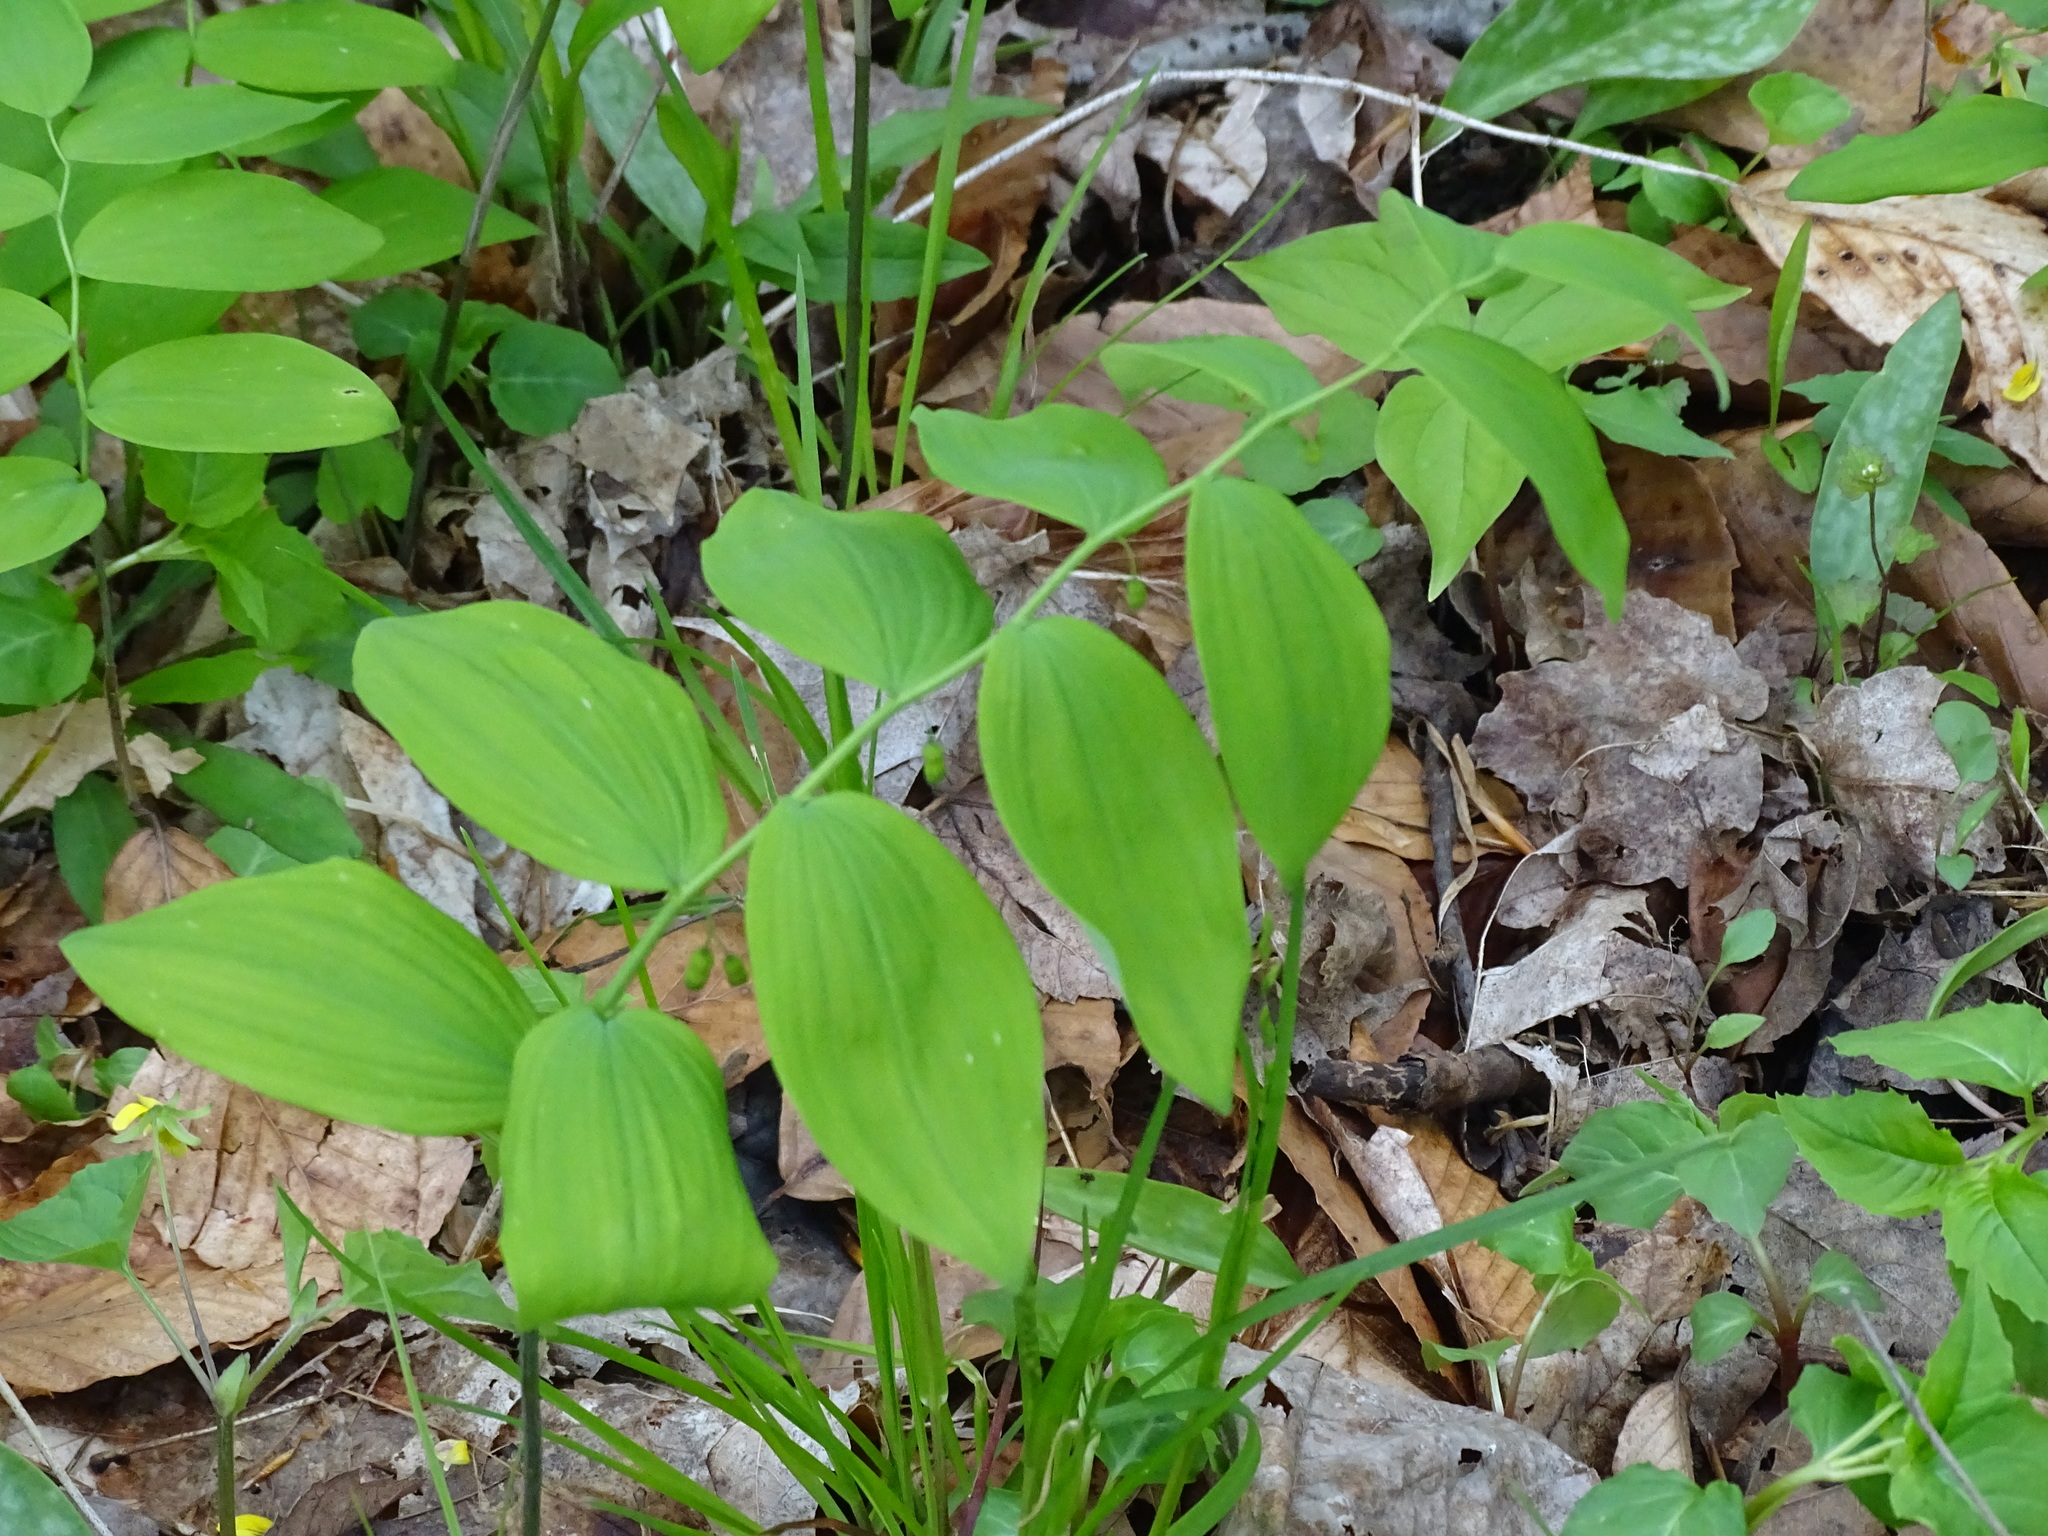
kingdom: Plantae
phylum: Tracheophyta
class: Liliopsida
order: Asparagales
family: Asparagaceae
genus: Polygonatum
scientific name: Polygonatum pubescens
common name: Downy solomon's seal
